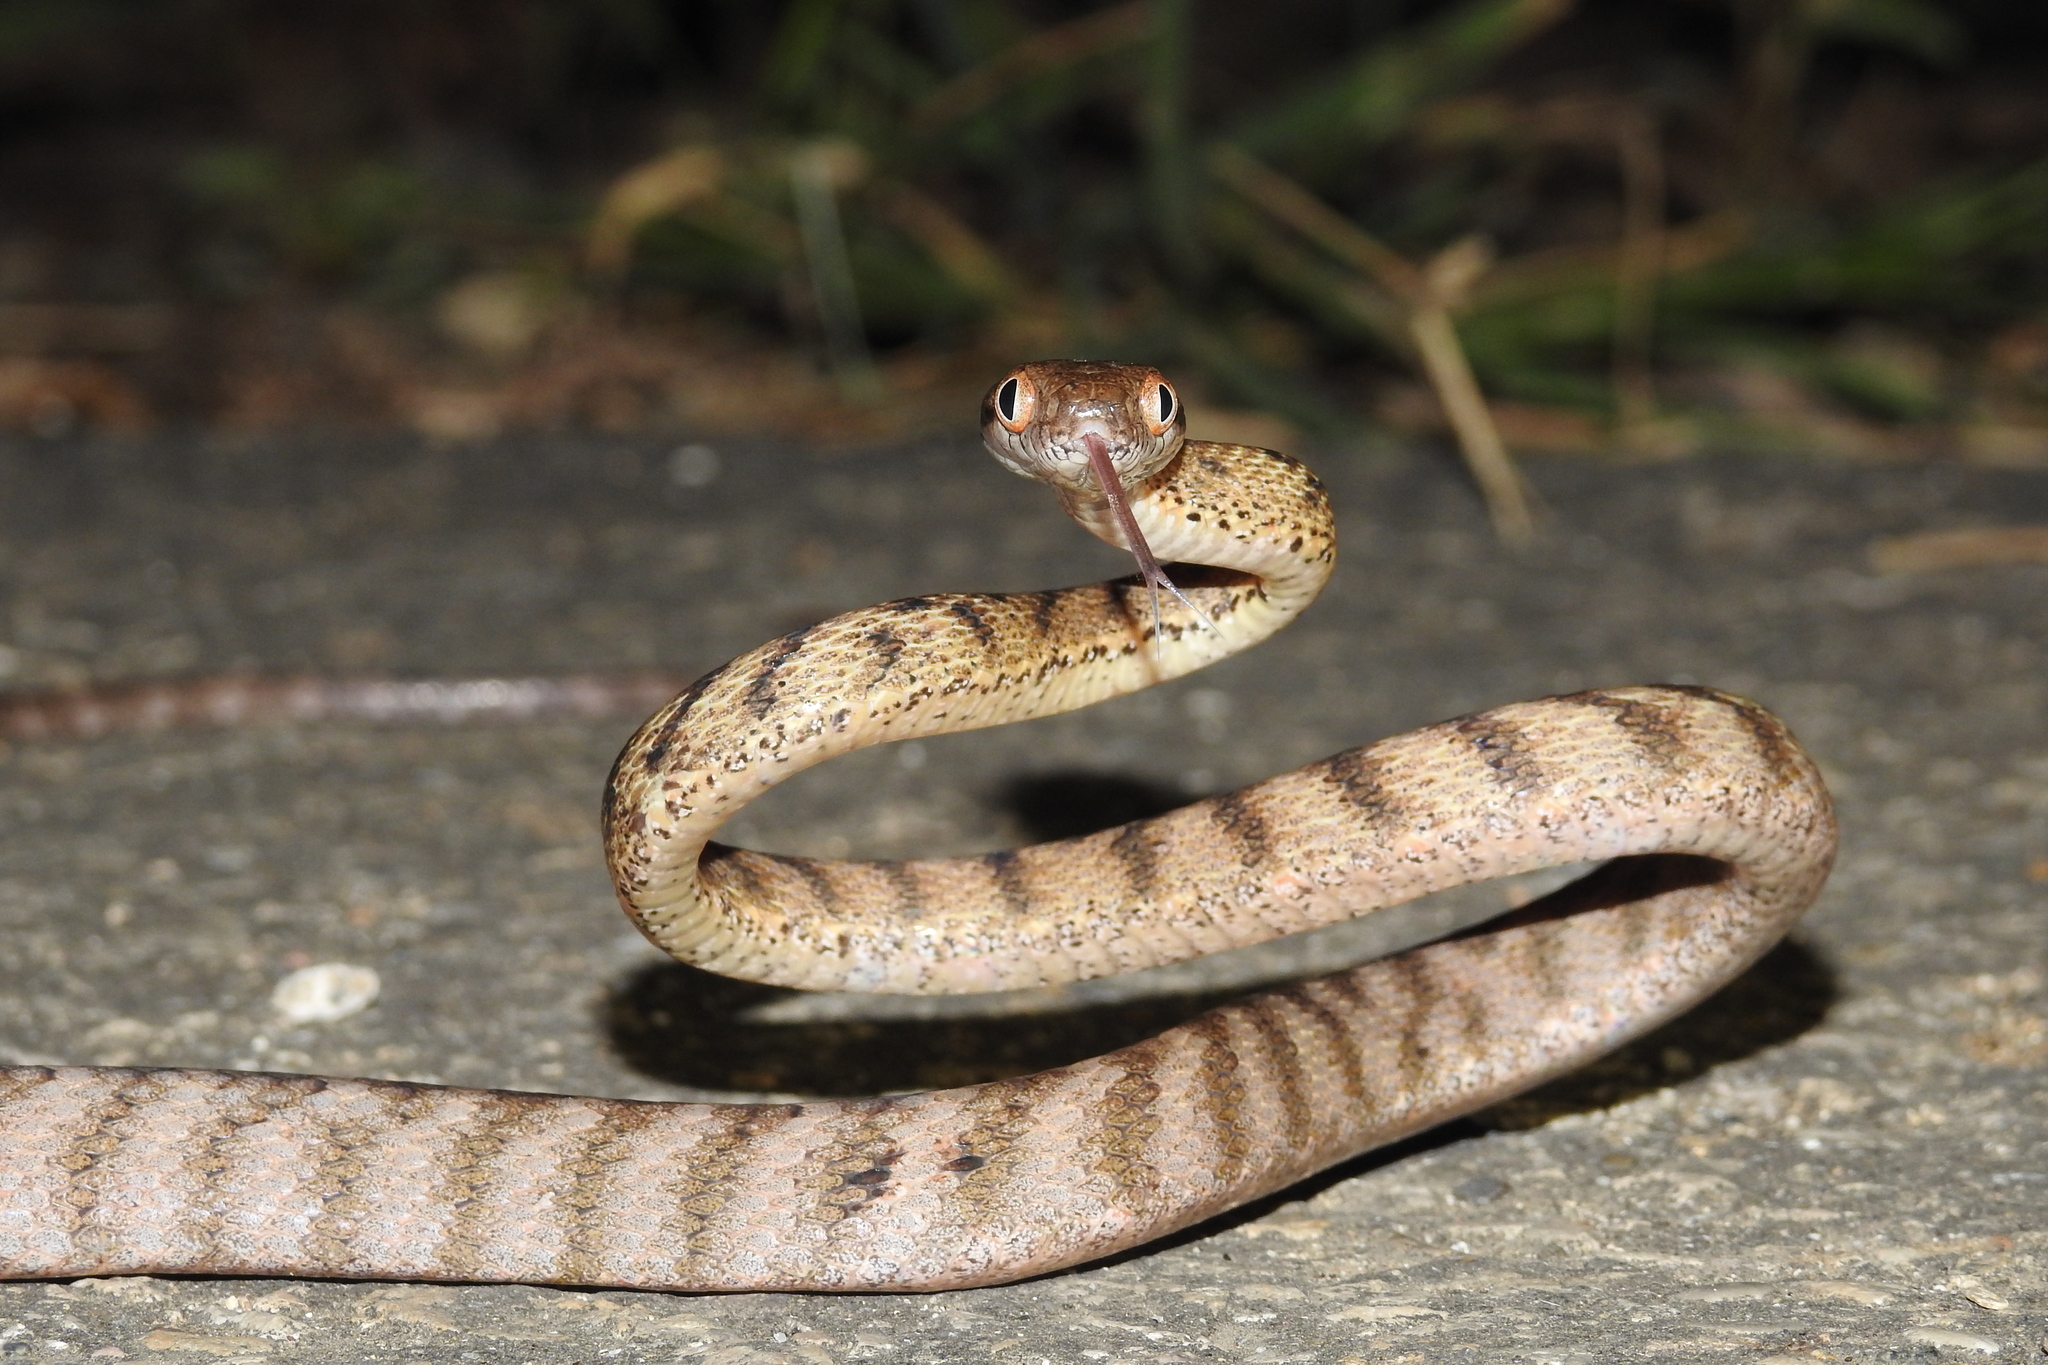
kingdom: Animalia
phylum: Chordata
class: Squamata
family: Colubridae
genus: Boiga
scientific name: Boiga irregularis
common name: Brown tree snake
